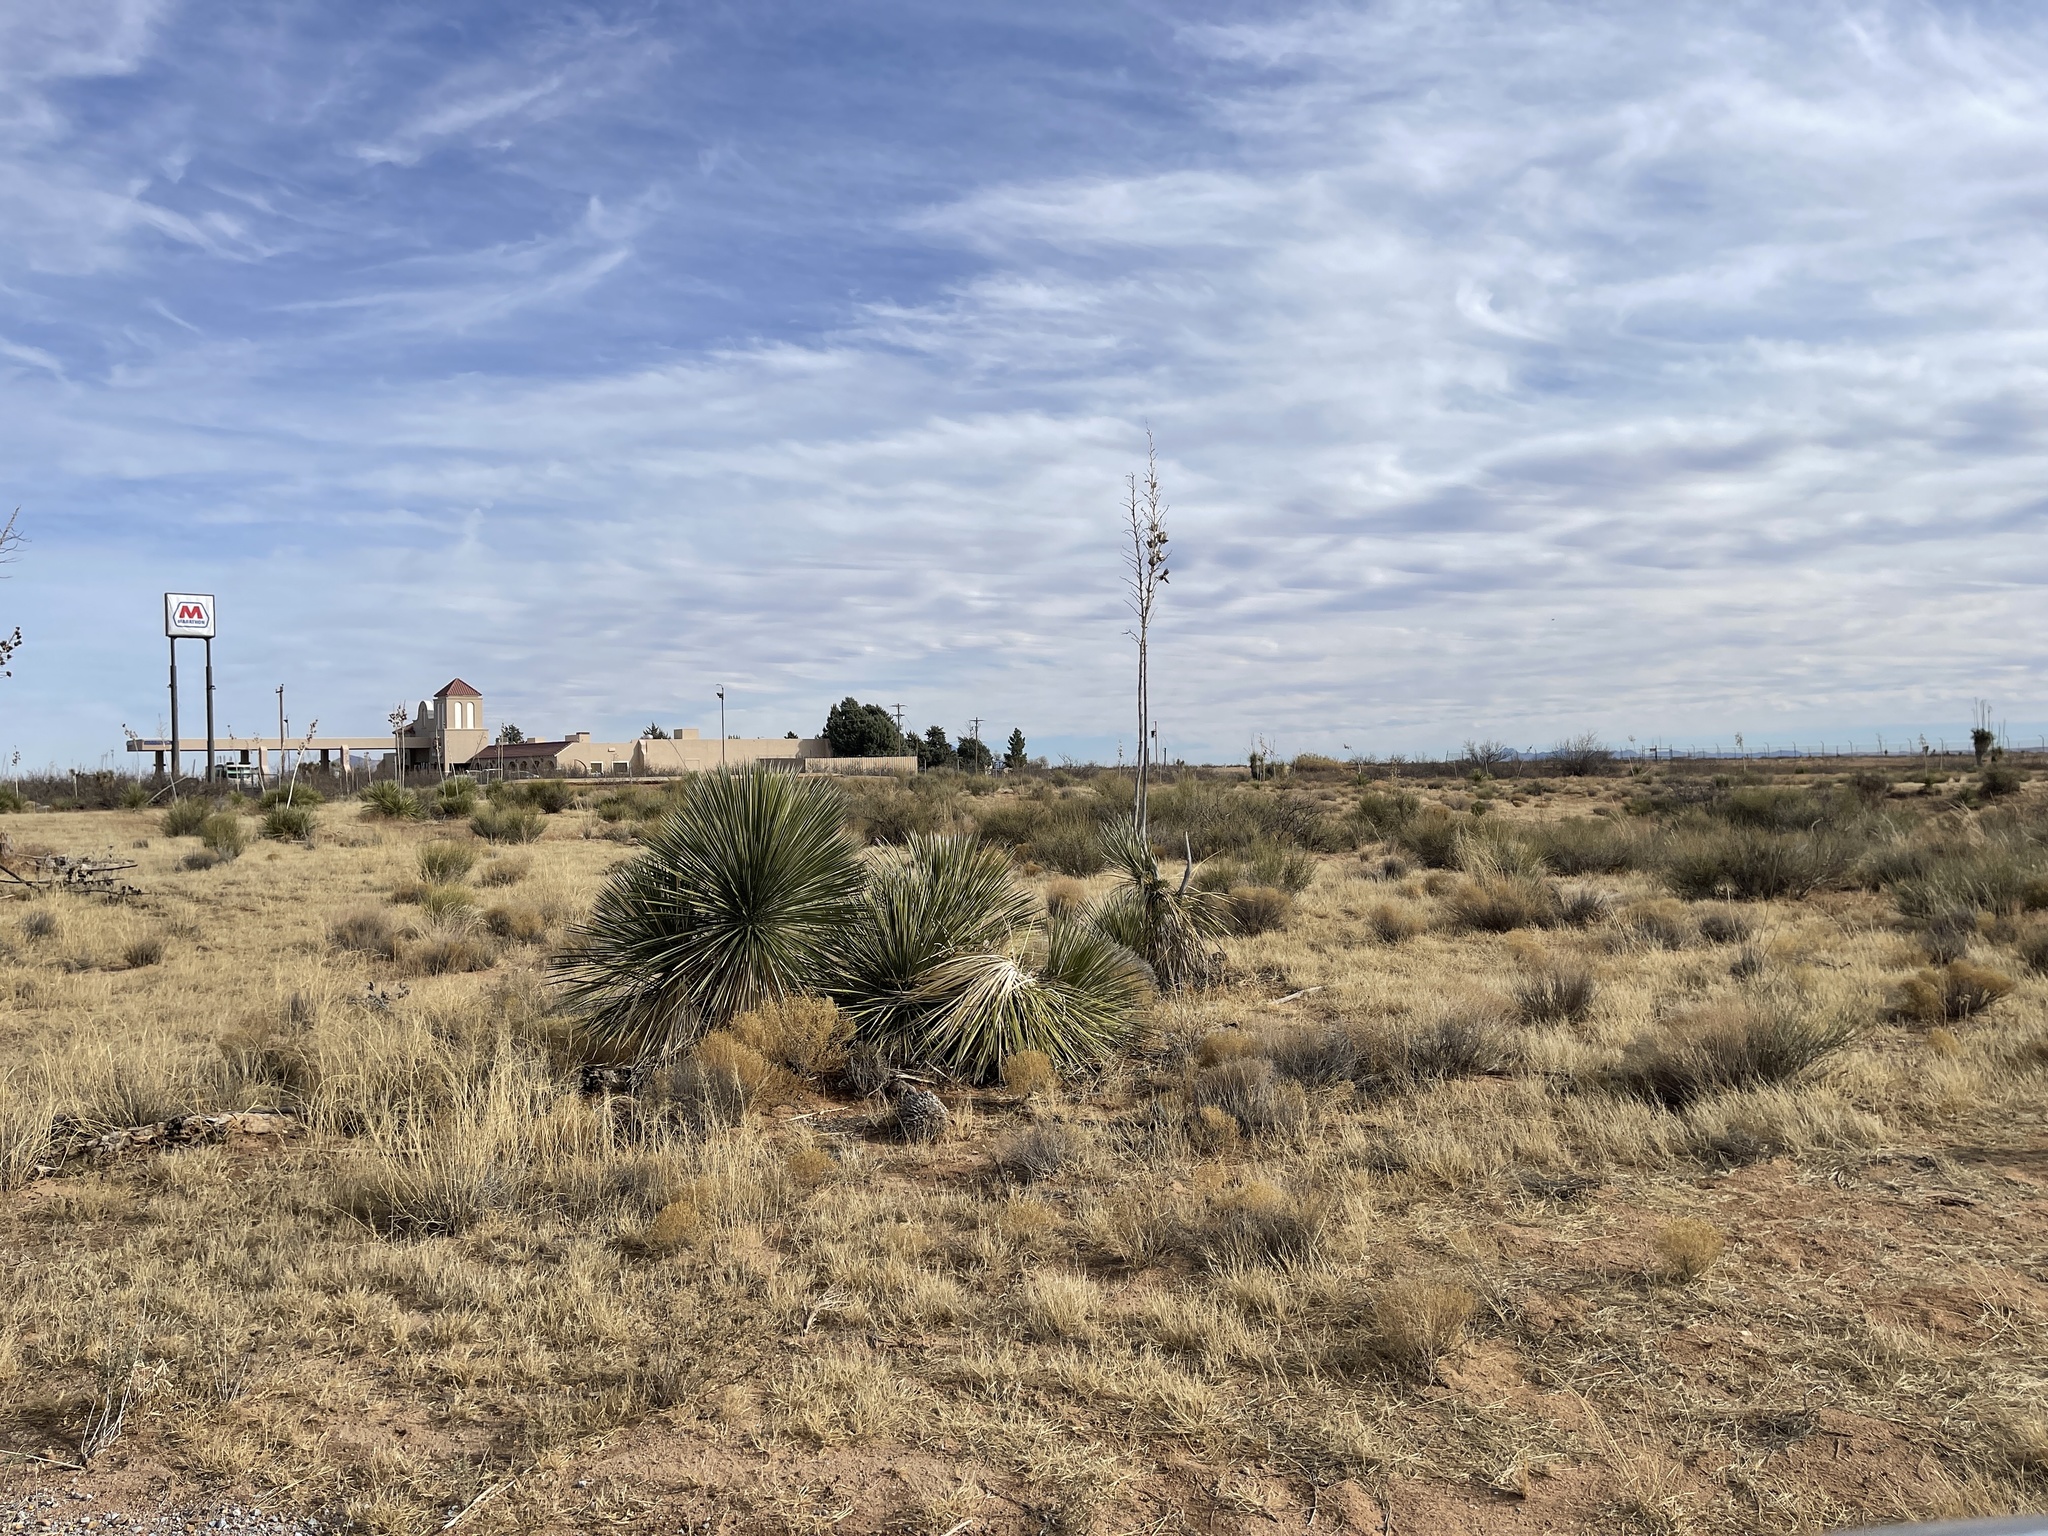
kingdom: Plantae
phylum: Tracheophyta
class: Liliopsida
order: Asparagales
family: Asparagaceae
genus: Yucca
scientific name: Yucca elata
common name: Palmella
